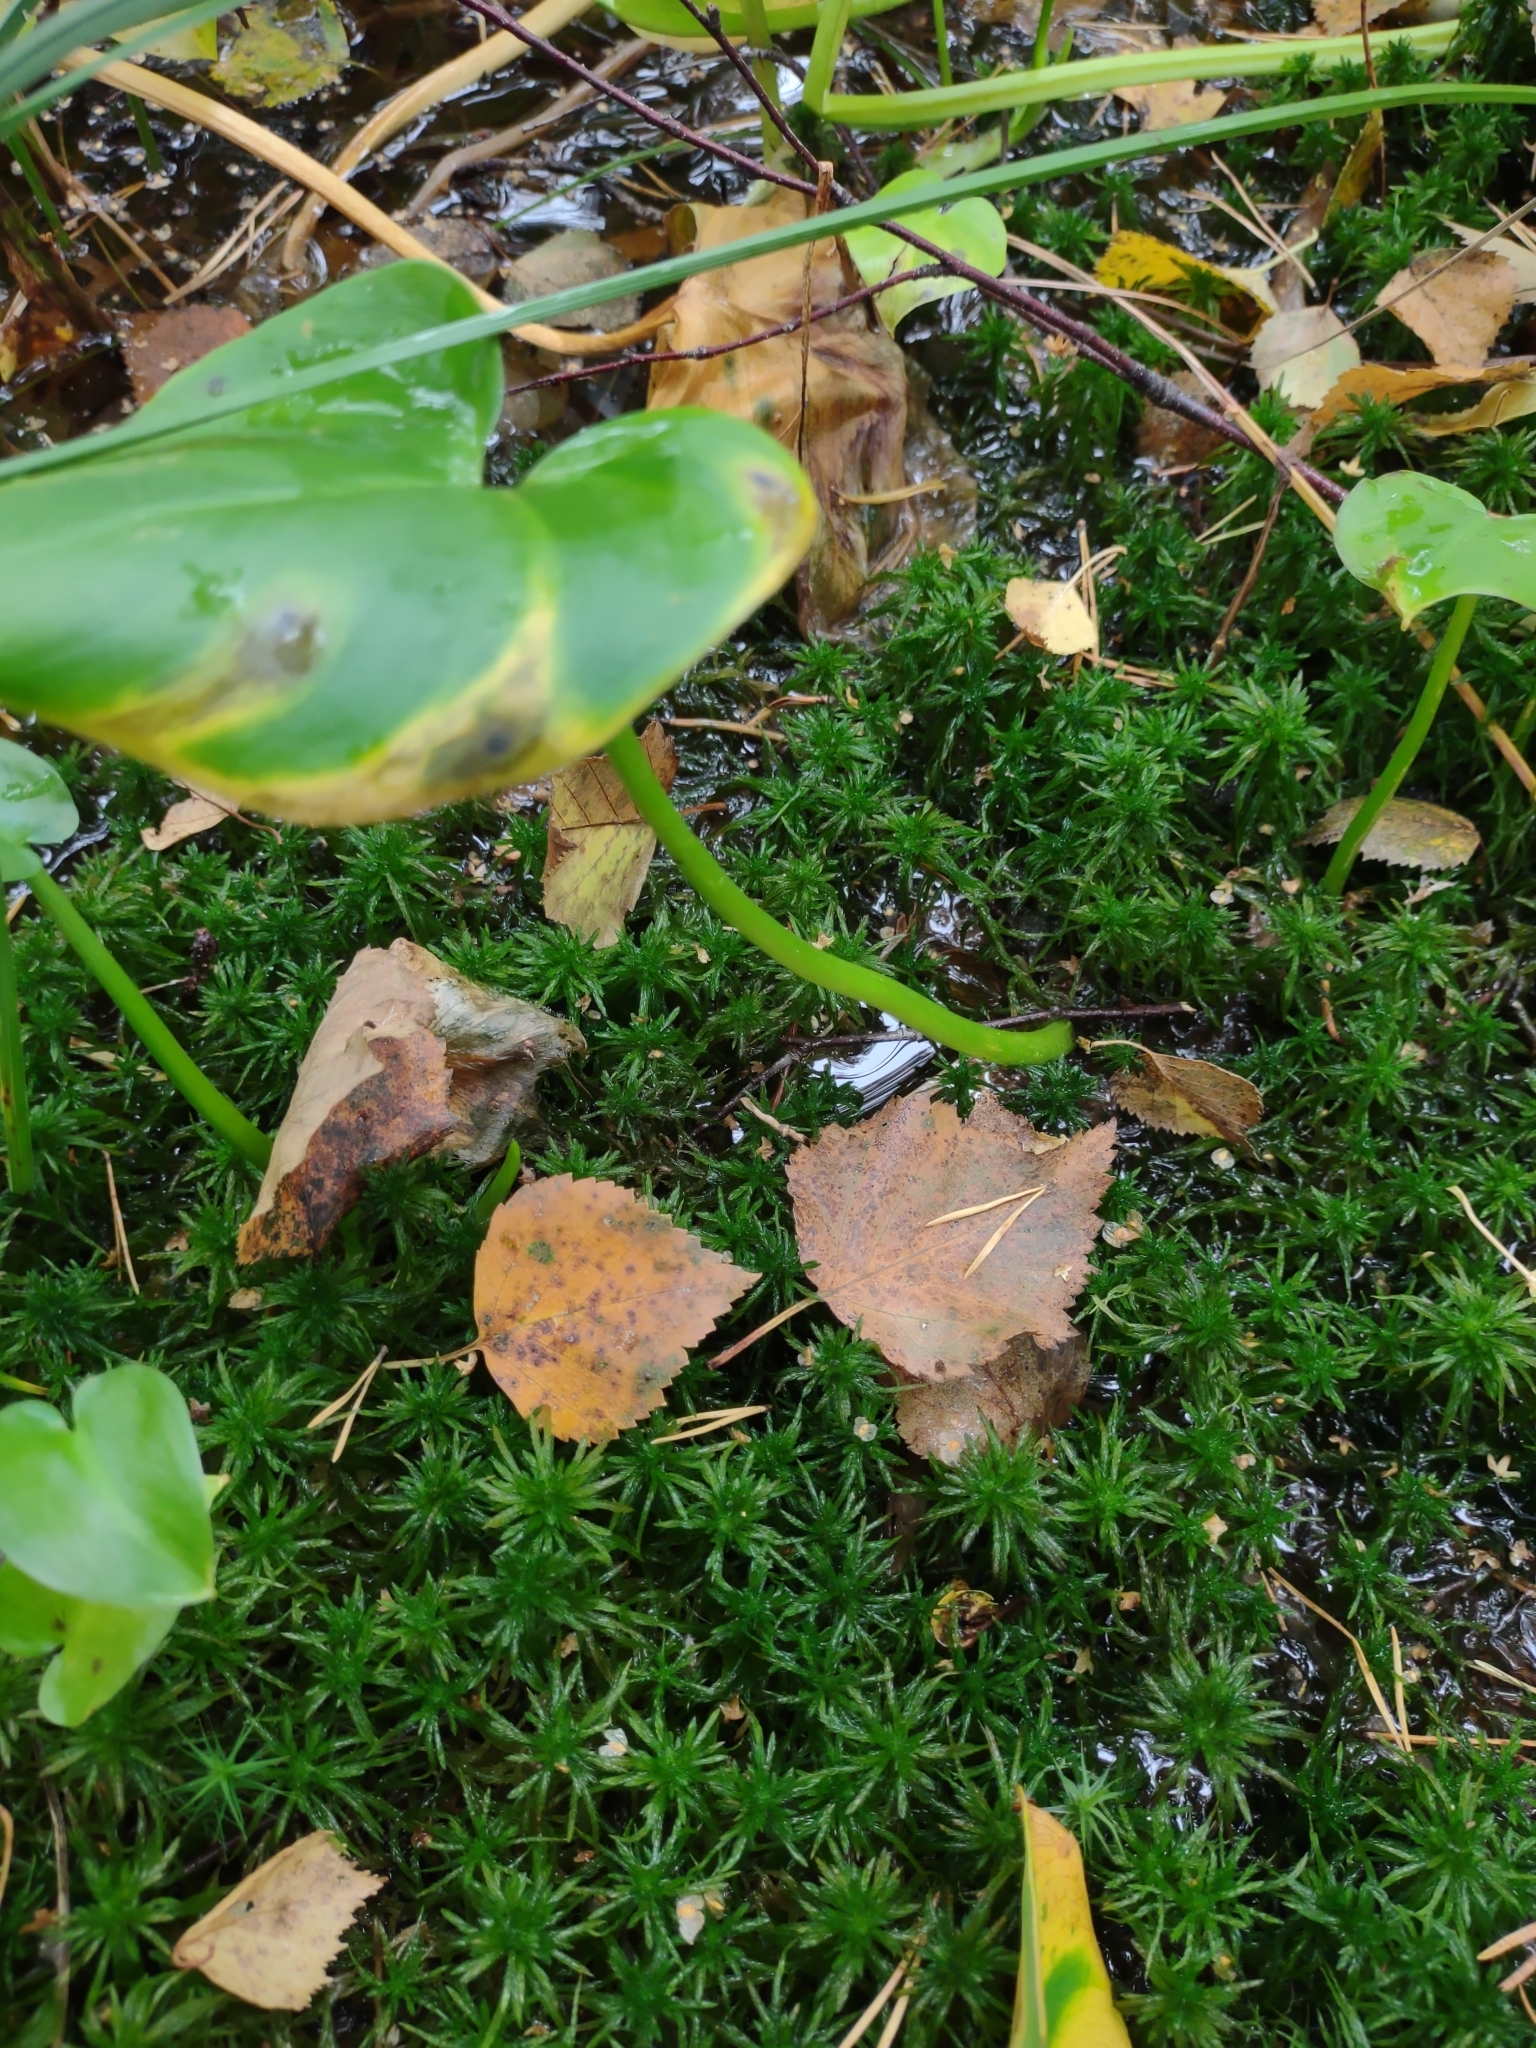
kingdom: Plantae
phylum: Tracheophyta
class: Liliopsida
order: Alismatales
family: Araceae
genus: Calla
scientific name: Calla palustris
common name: Bog arum
